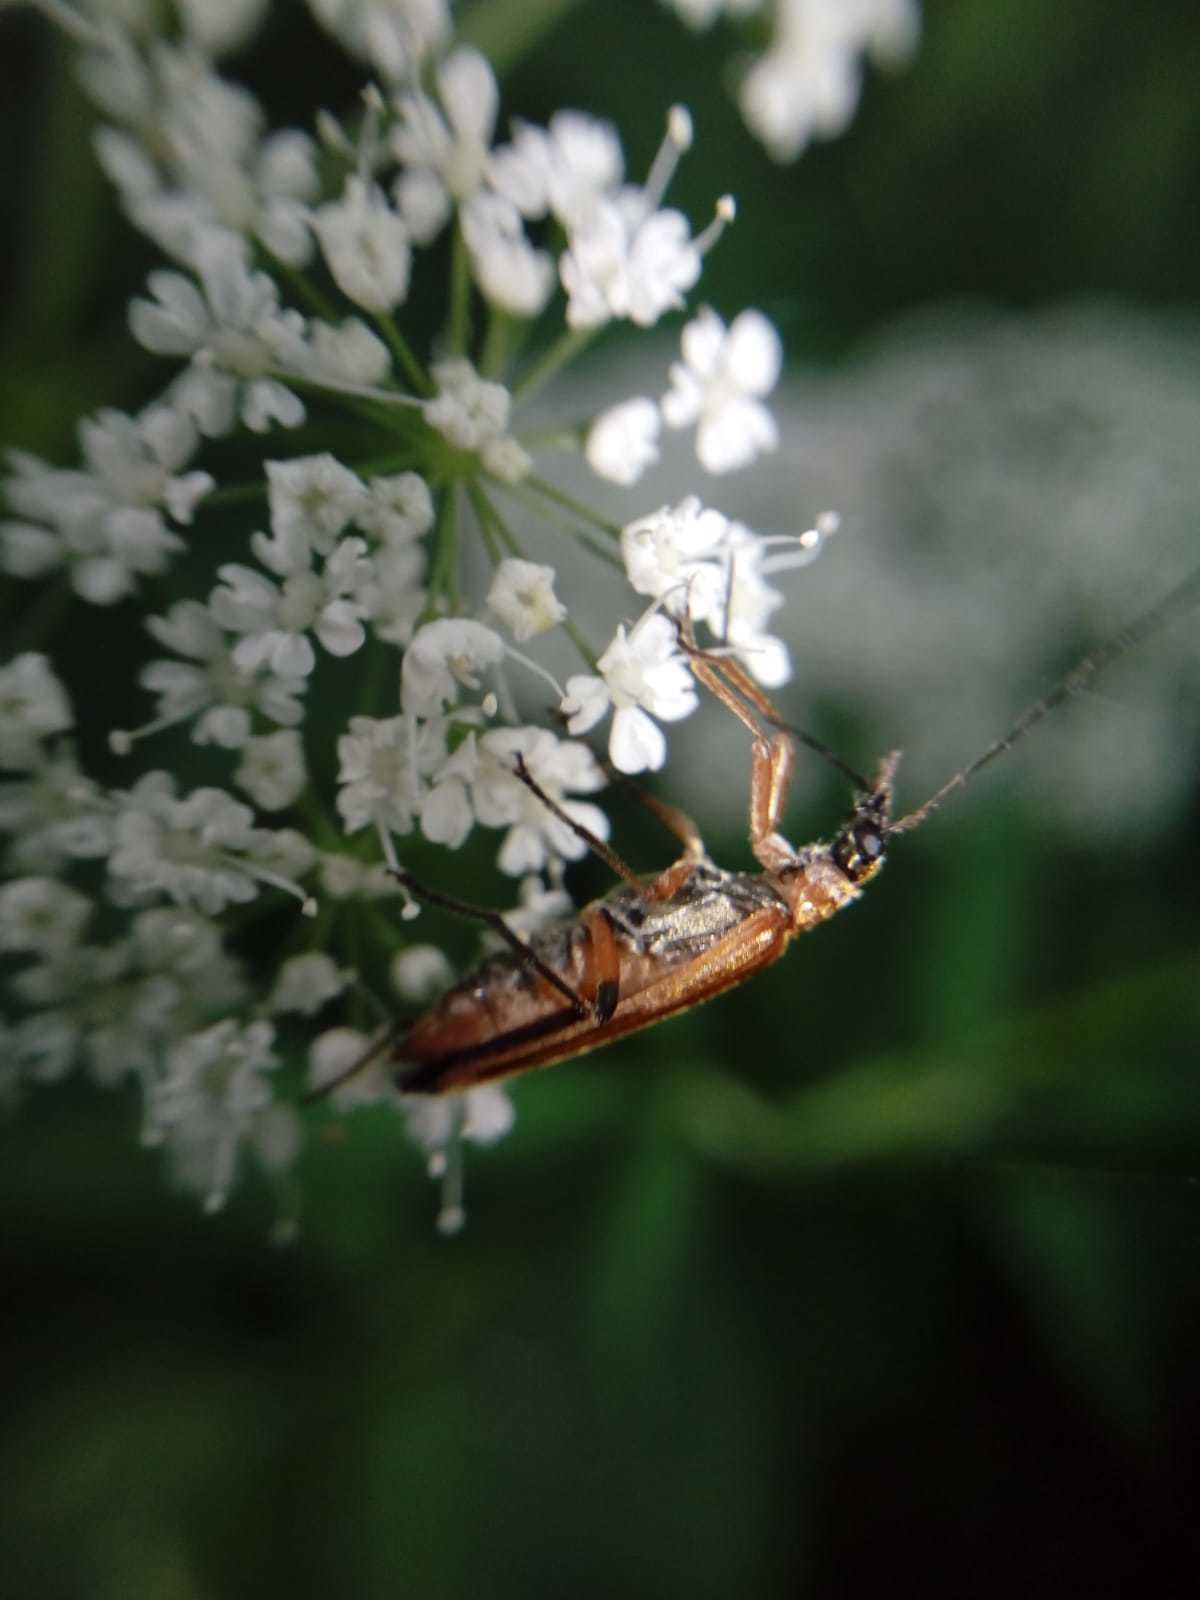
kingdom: Animalia
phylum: Arthropoda
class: Insecta
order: Coleoptera
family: Oedemeridae
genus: Oedemera
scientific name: Oedemera podagrariae
